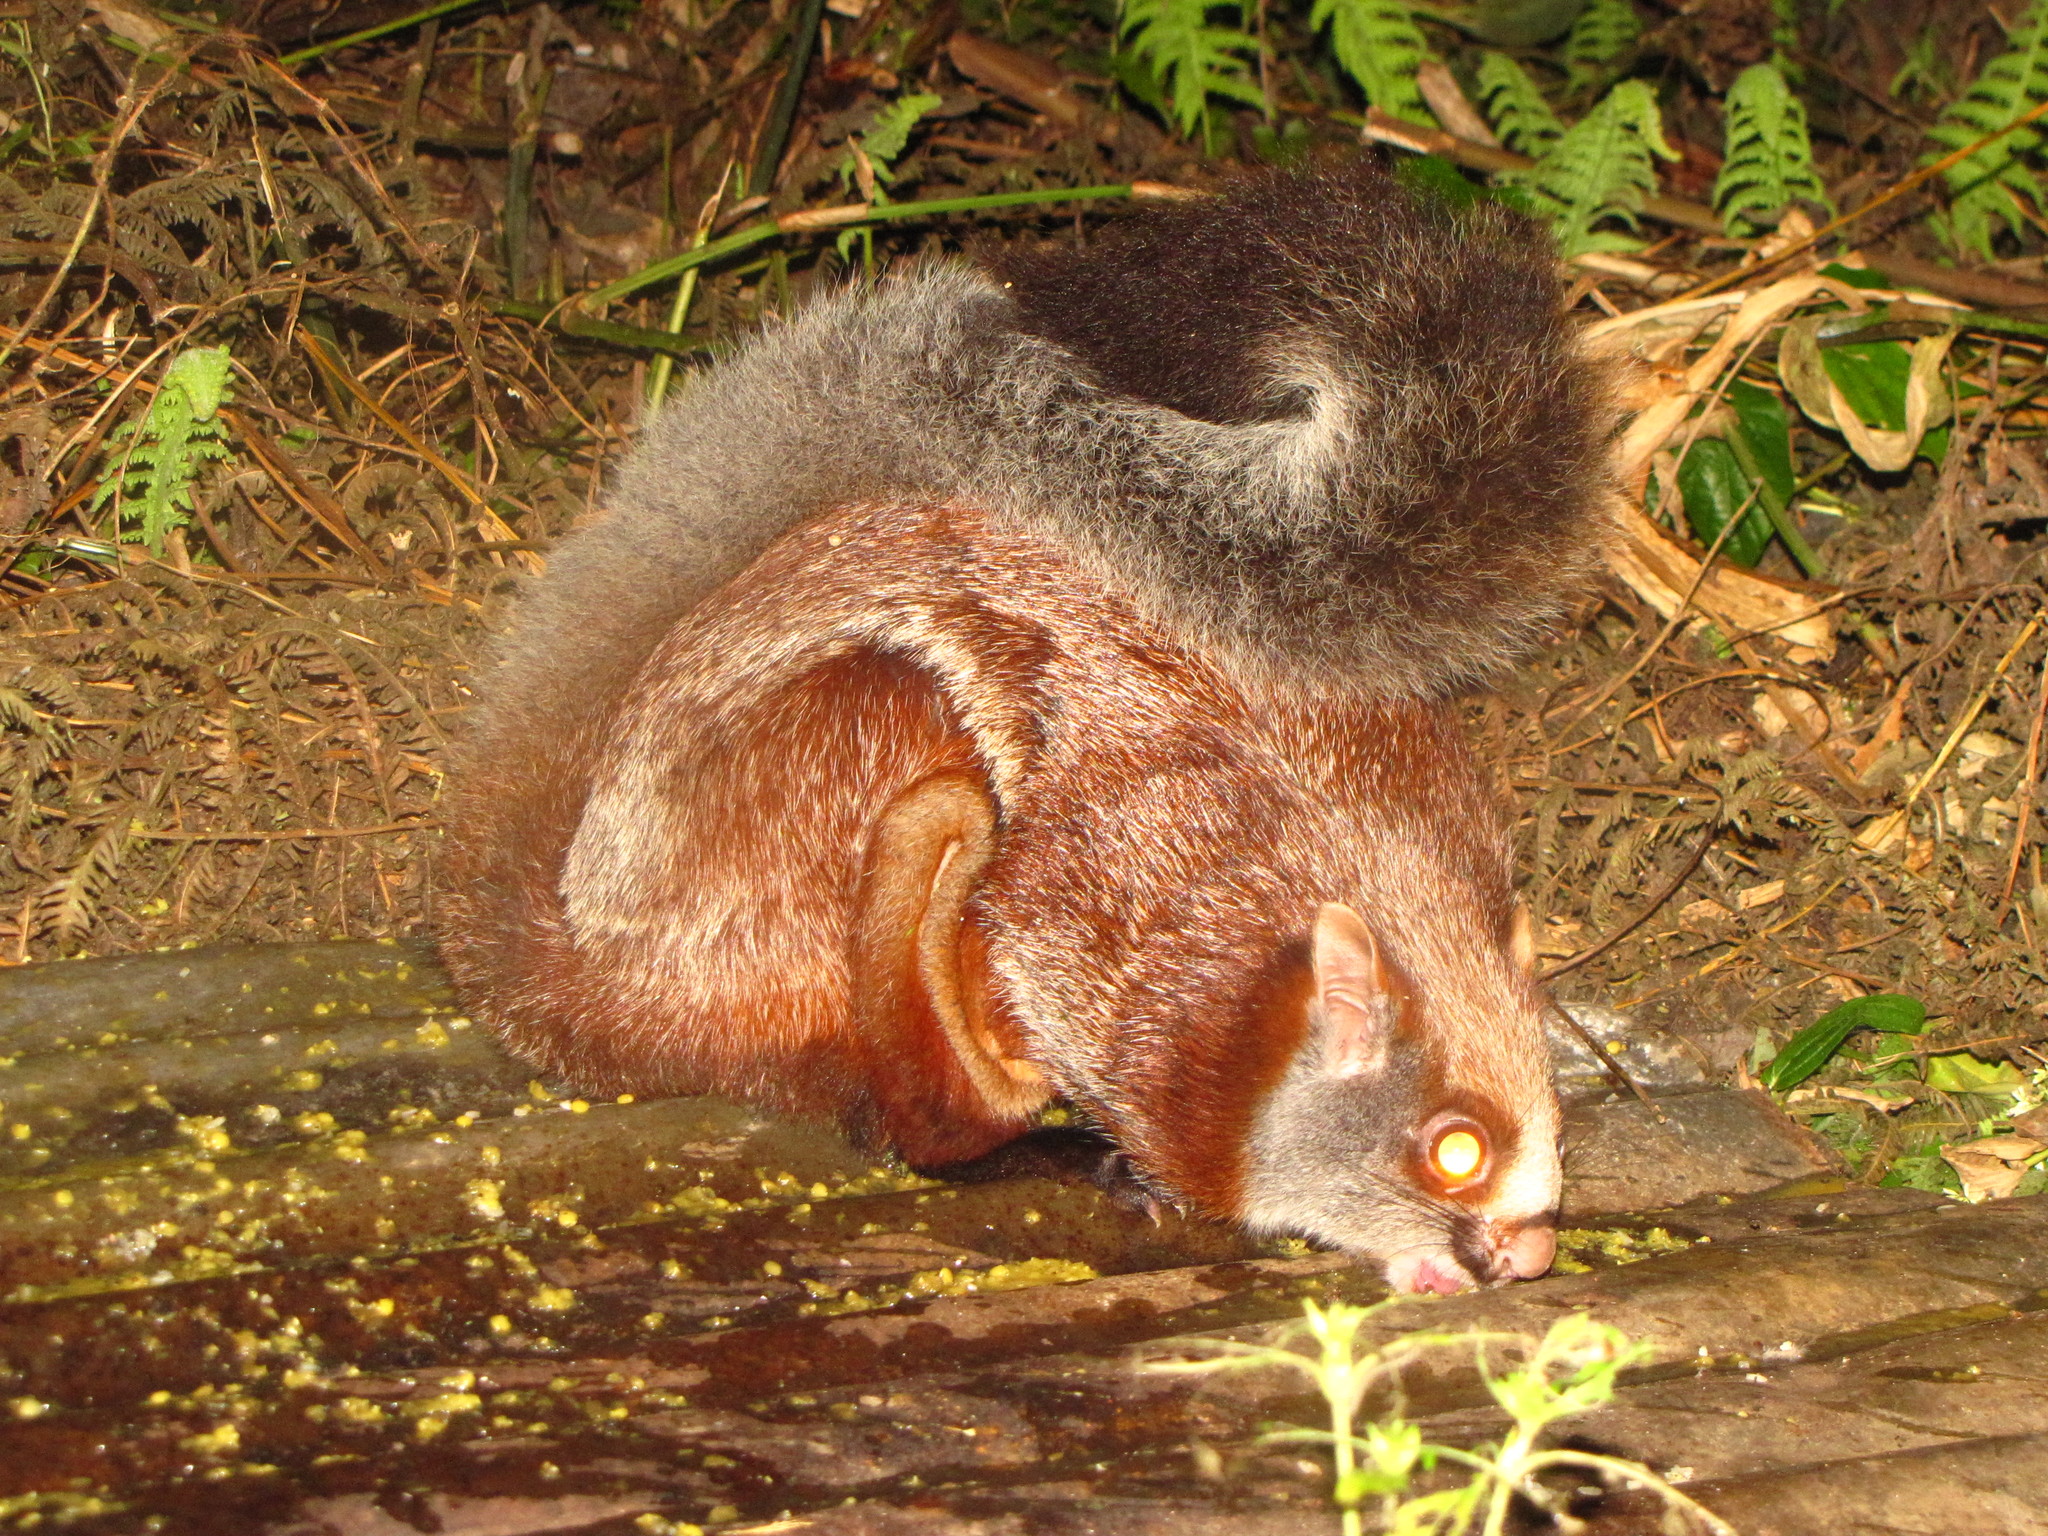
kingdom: Animalia
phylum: Chordata
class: Mammalia
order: Rodentia
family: Sciuridae
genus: Petaurista
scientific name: Petaurista petaurista
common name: Red giant flying squirrel
